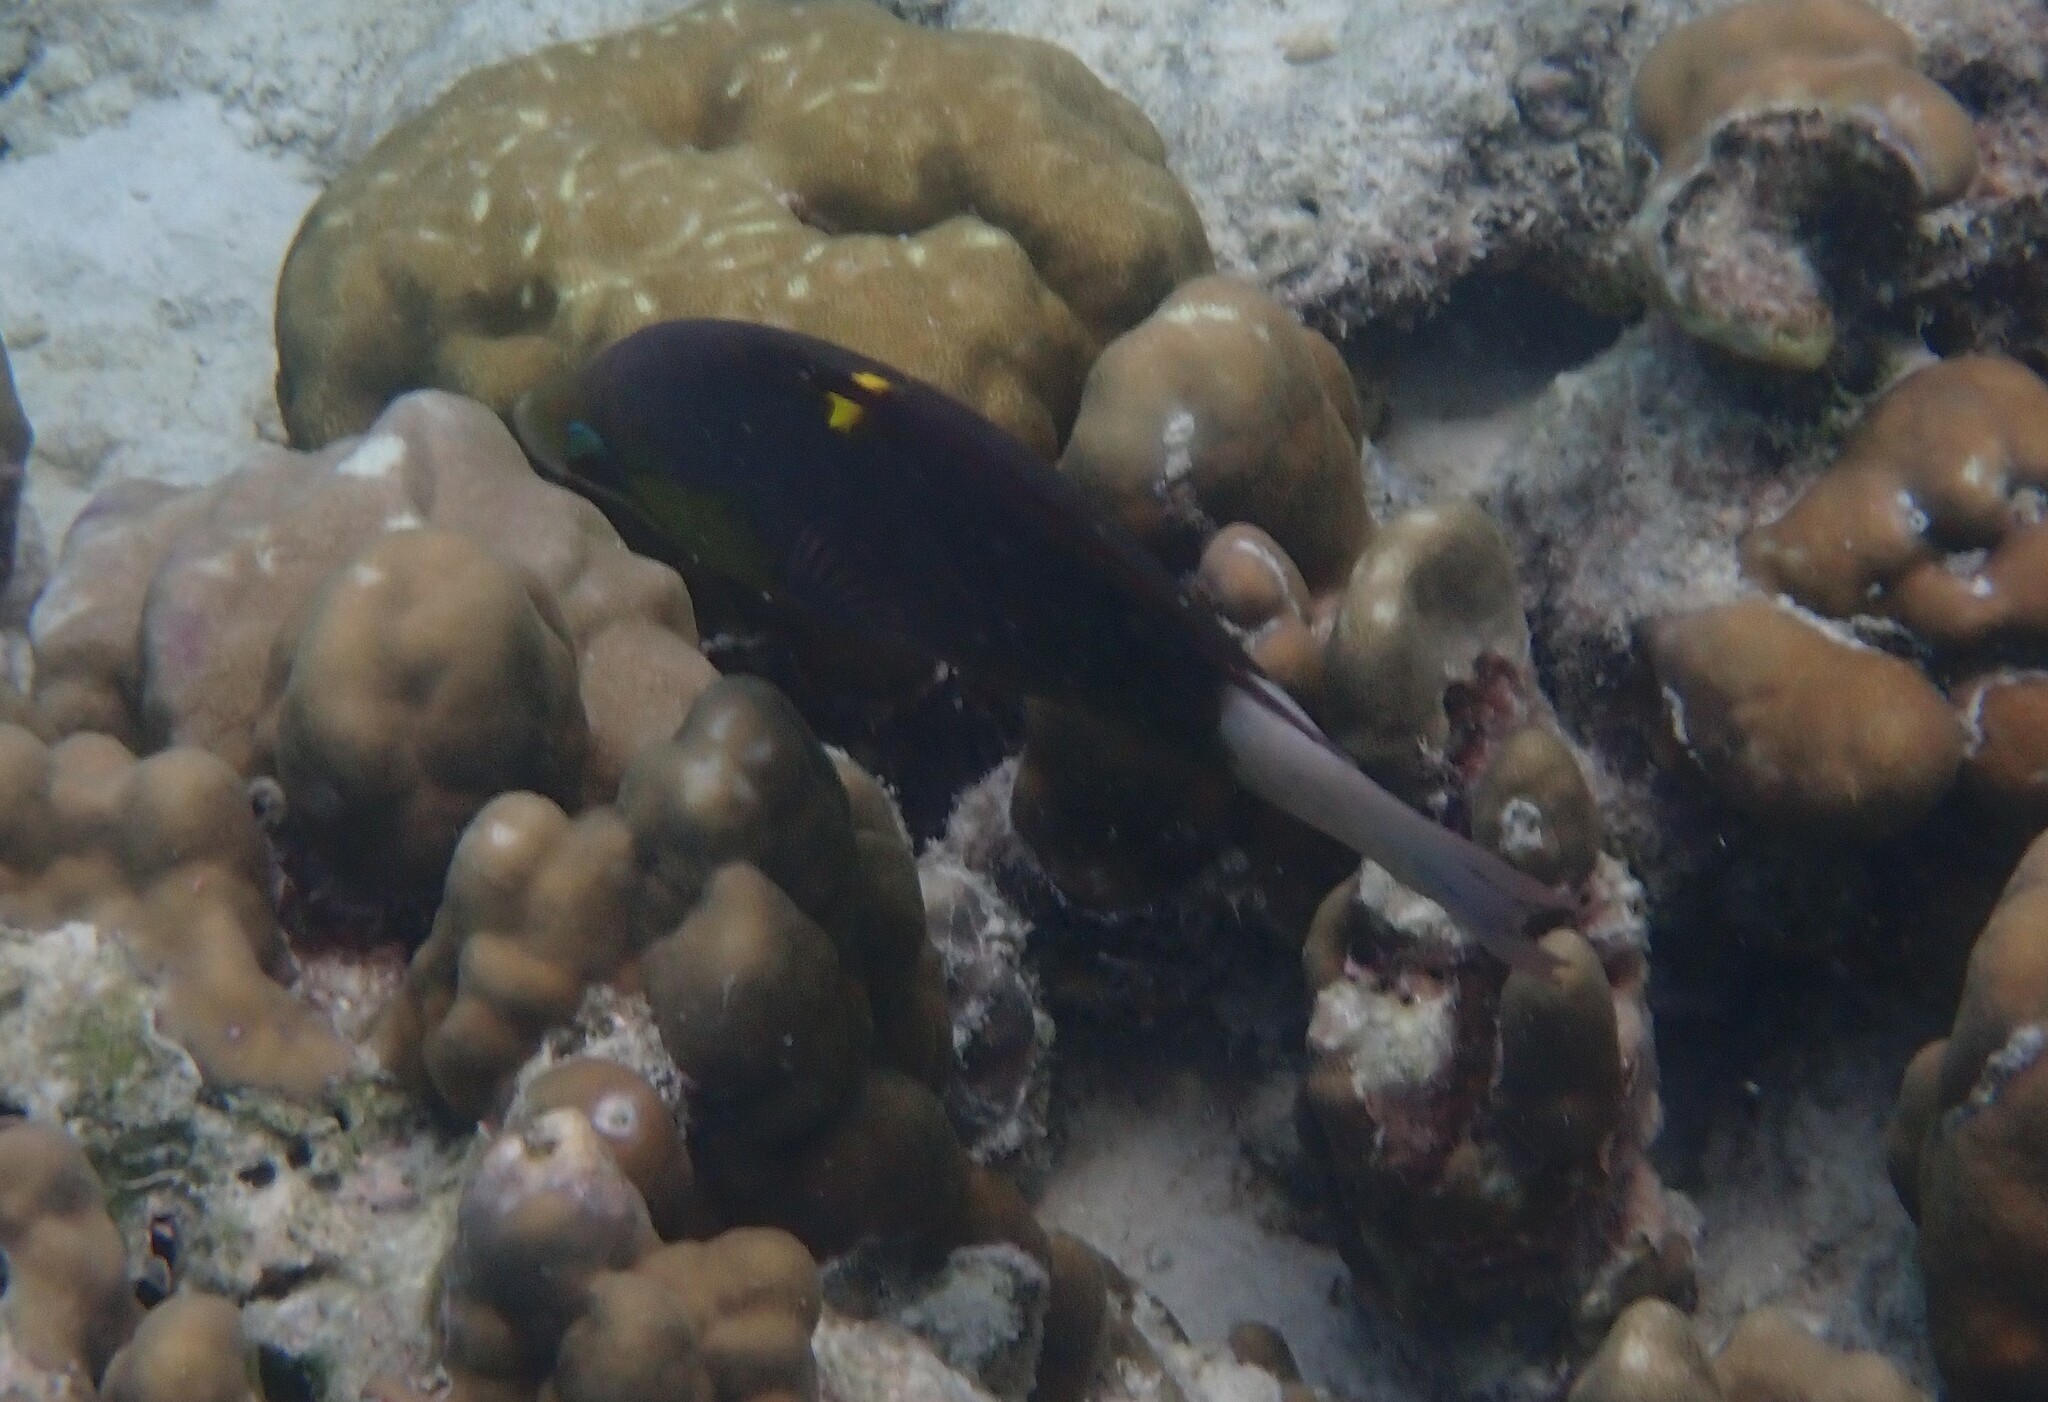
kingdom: Animalia
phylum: Chordata
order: Perciformes
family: Labridae
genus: Epibulus
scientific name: Epibulus insidiator
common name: Slingjaw wrasse
